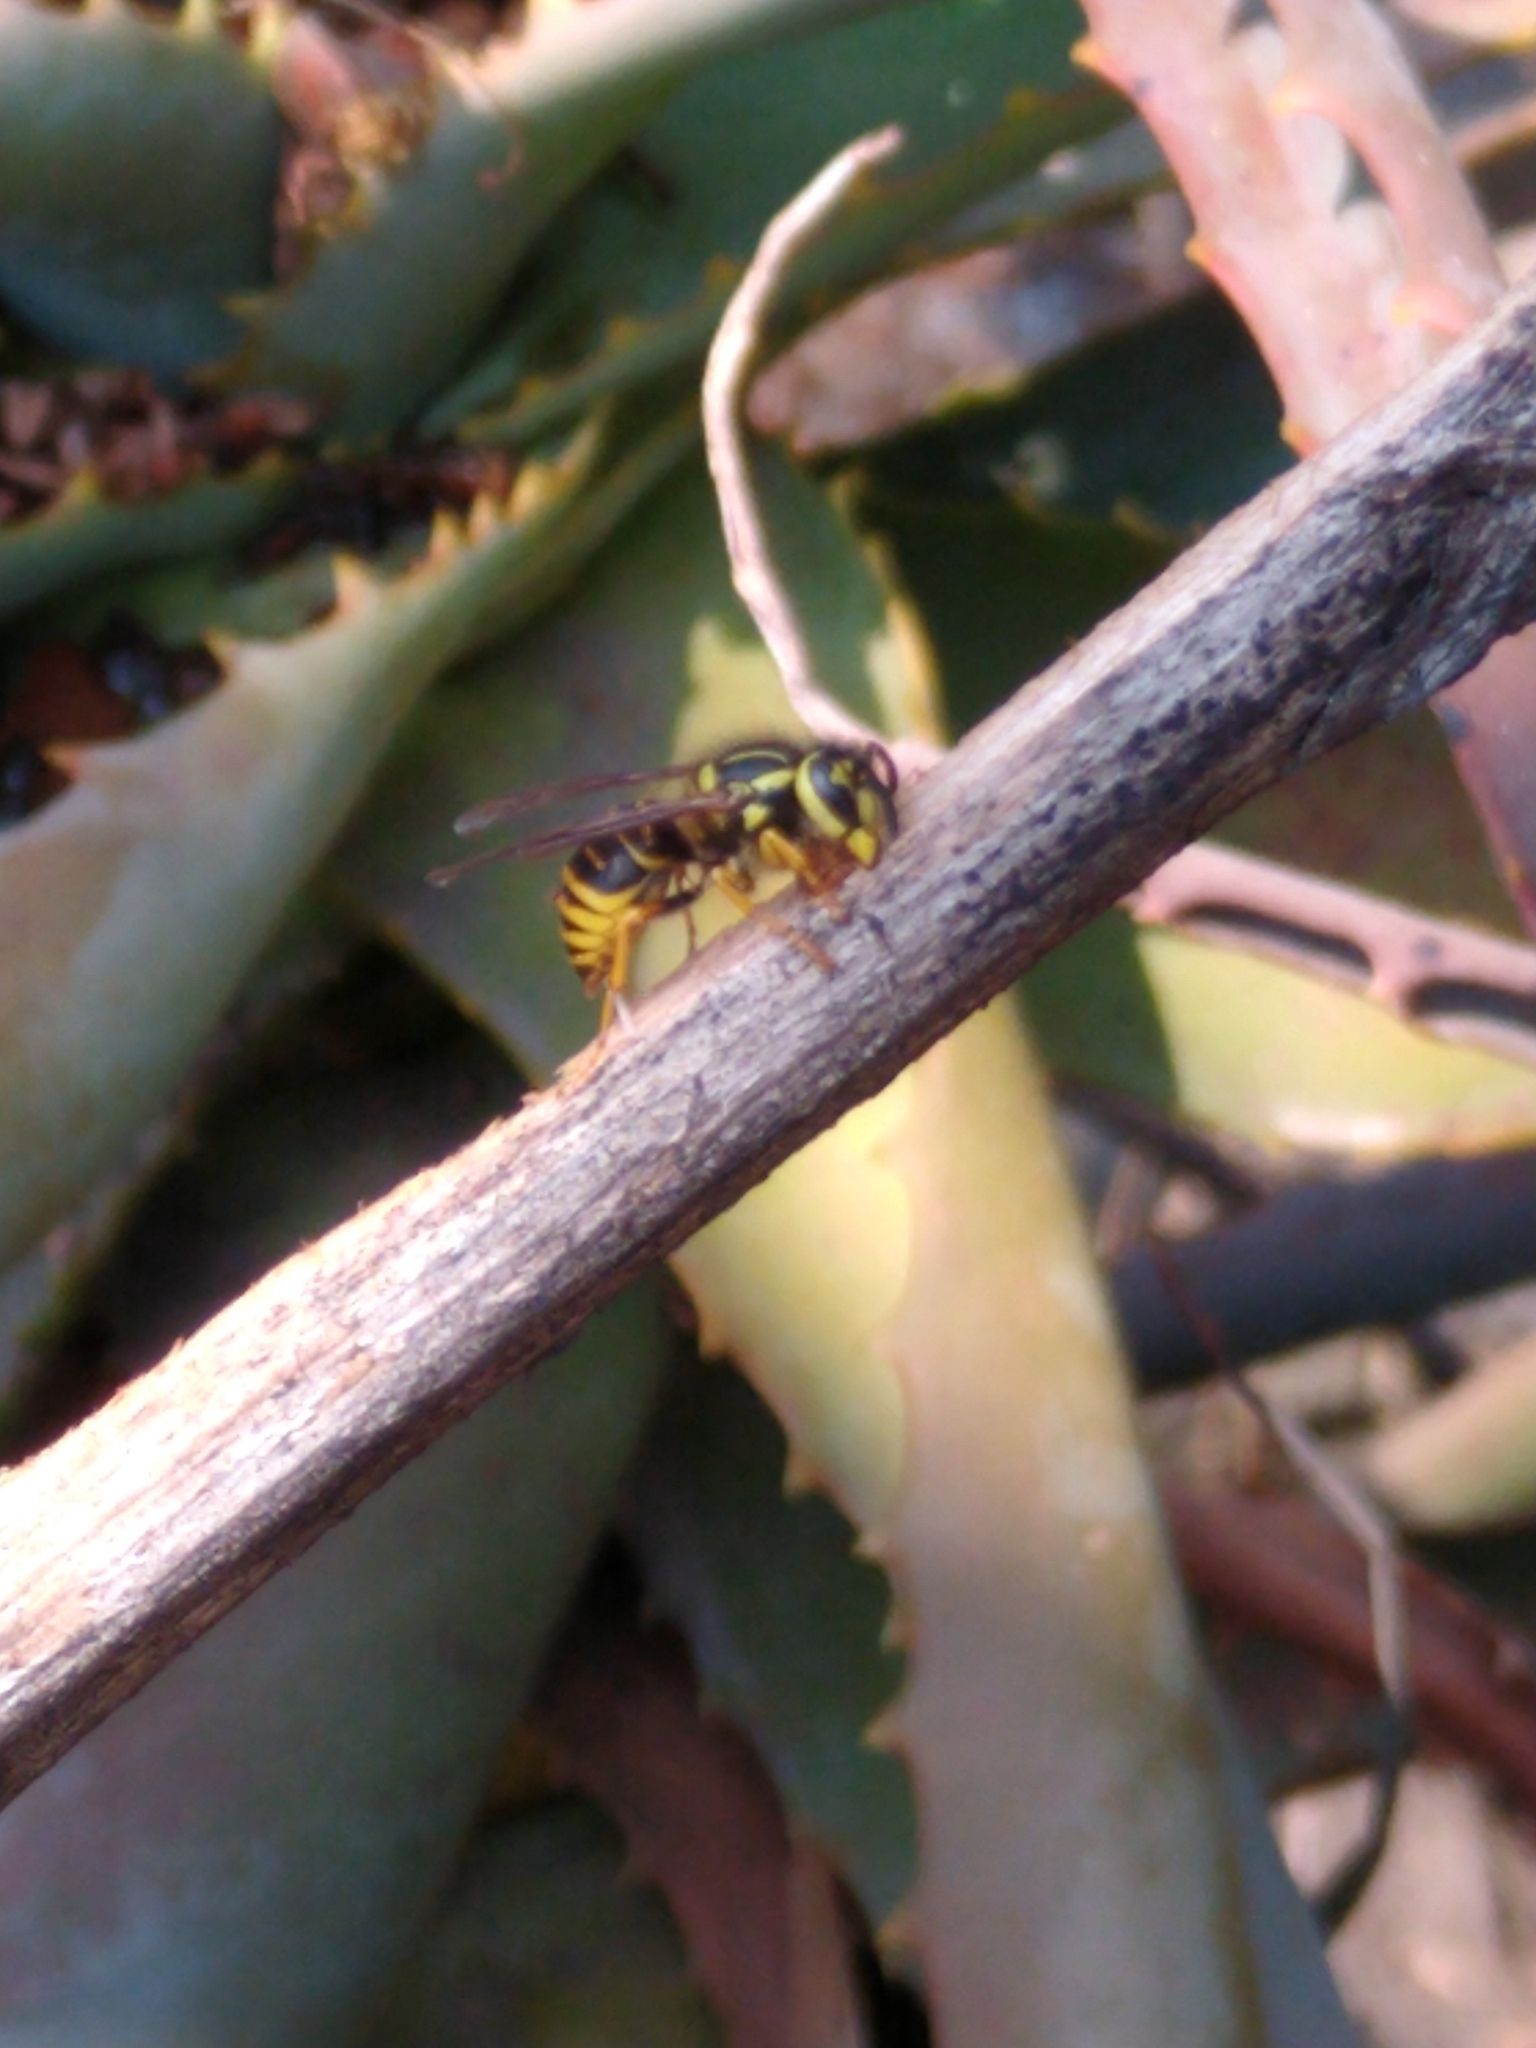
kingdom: Animalia
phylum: Arthropoda
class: Insecta
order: Hymenoptera
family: Vespidae
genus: Vespula
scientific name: Vespula squamosa
